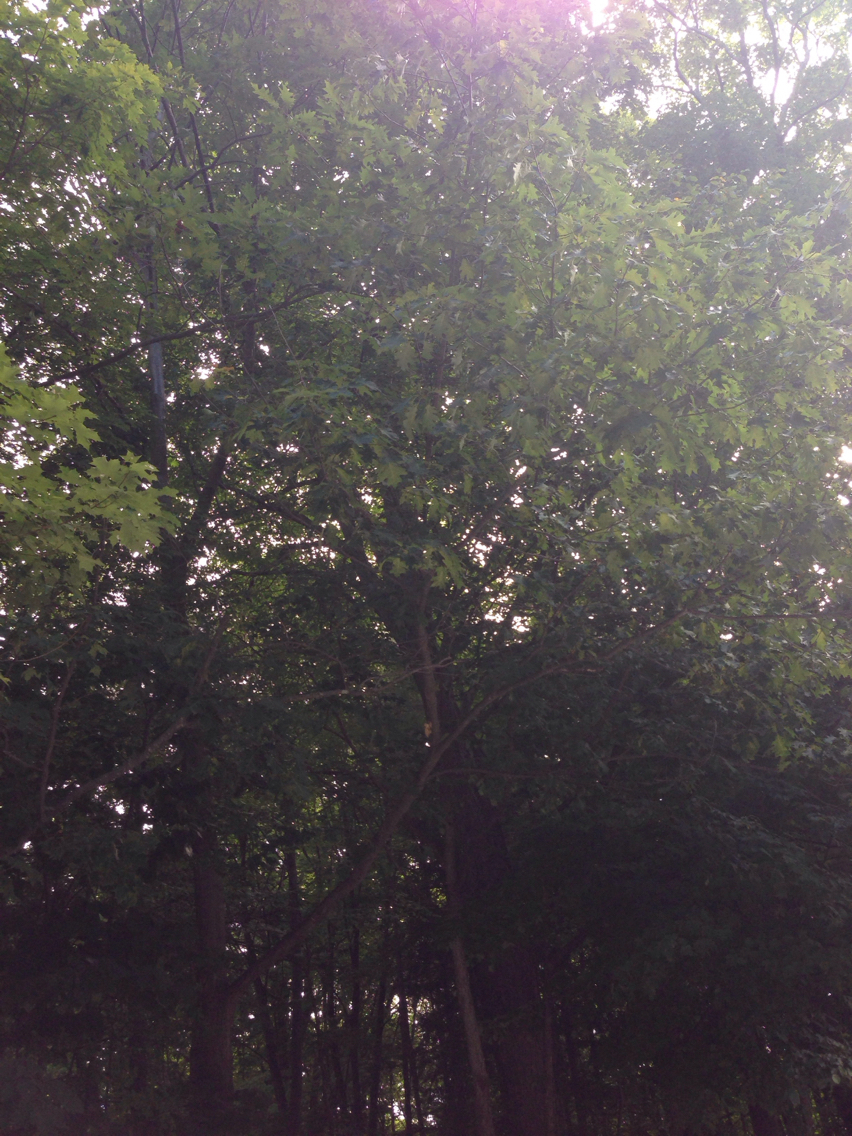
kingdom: Plantae
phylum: Tracheophyta
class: Magnoliopsida
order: Fagales
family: Fagaceae
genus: Quercus
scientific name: Quercus rubra
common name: Red oak
